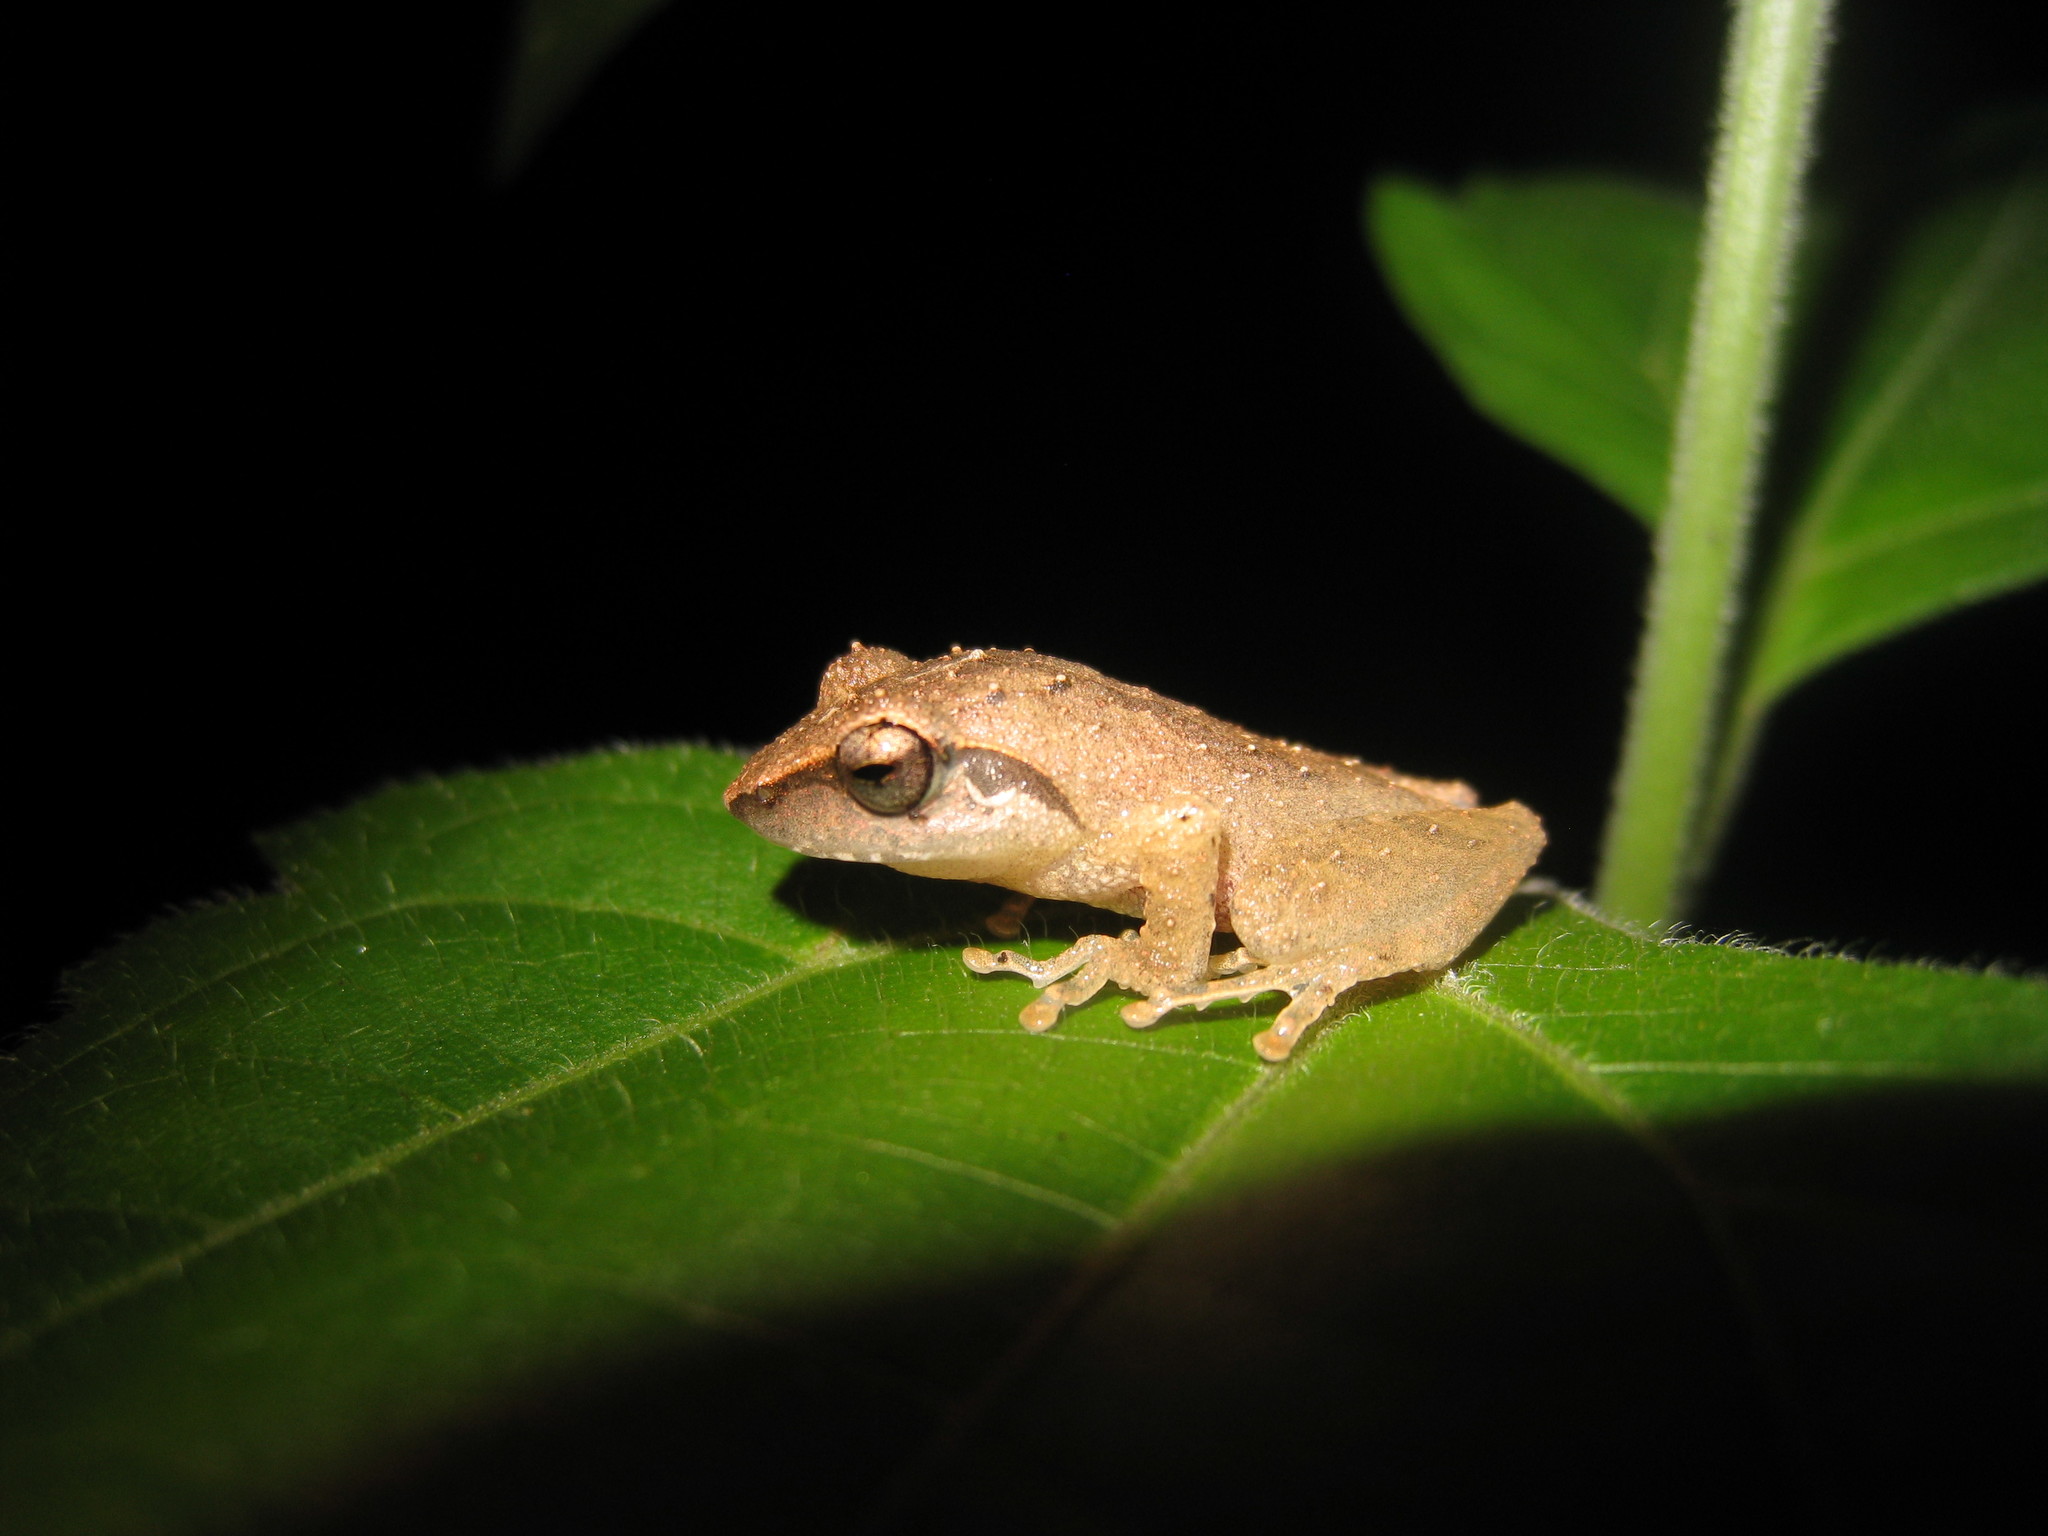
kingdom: Animalia
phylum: Chordata
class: Amphibia
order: Anura
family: Rhacophoridae
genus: Pseudophilautus
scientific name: Pseudophilautus wynaadensis
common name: Dark-eared bush frog
